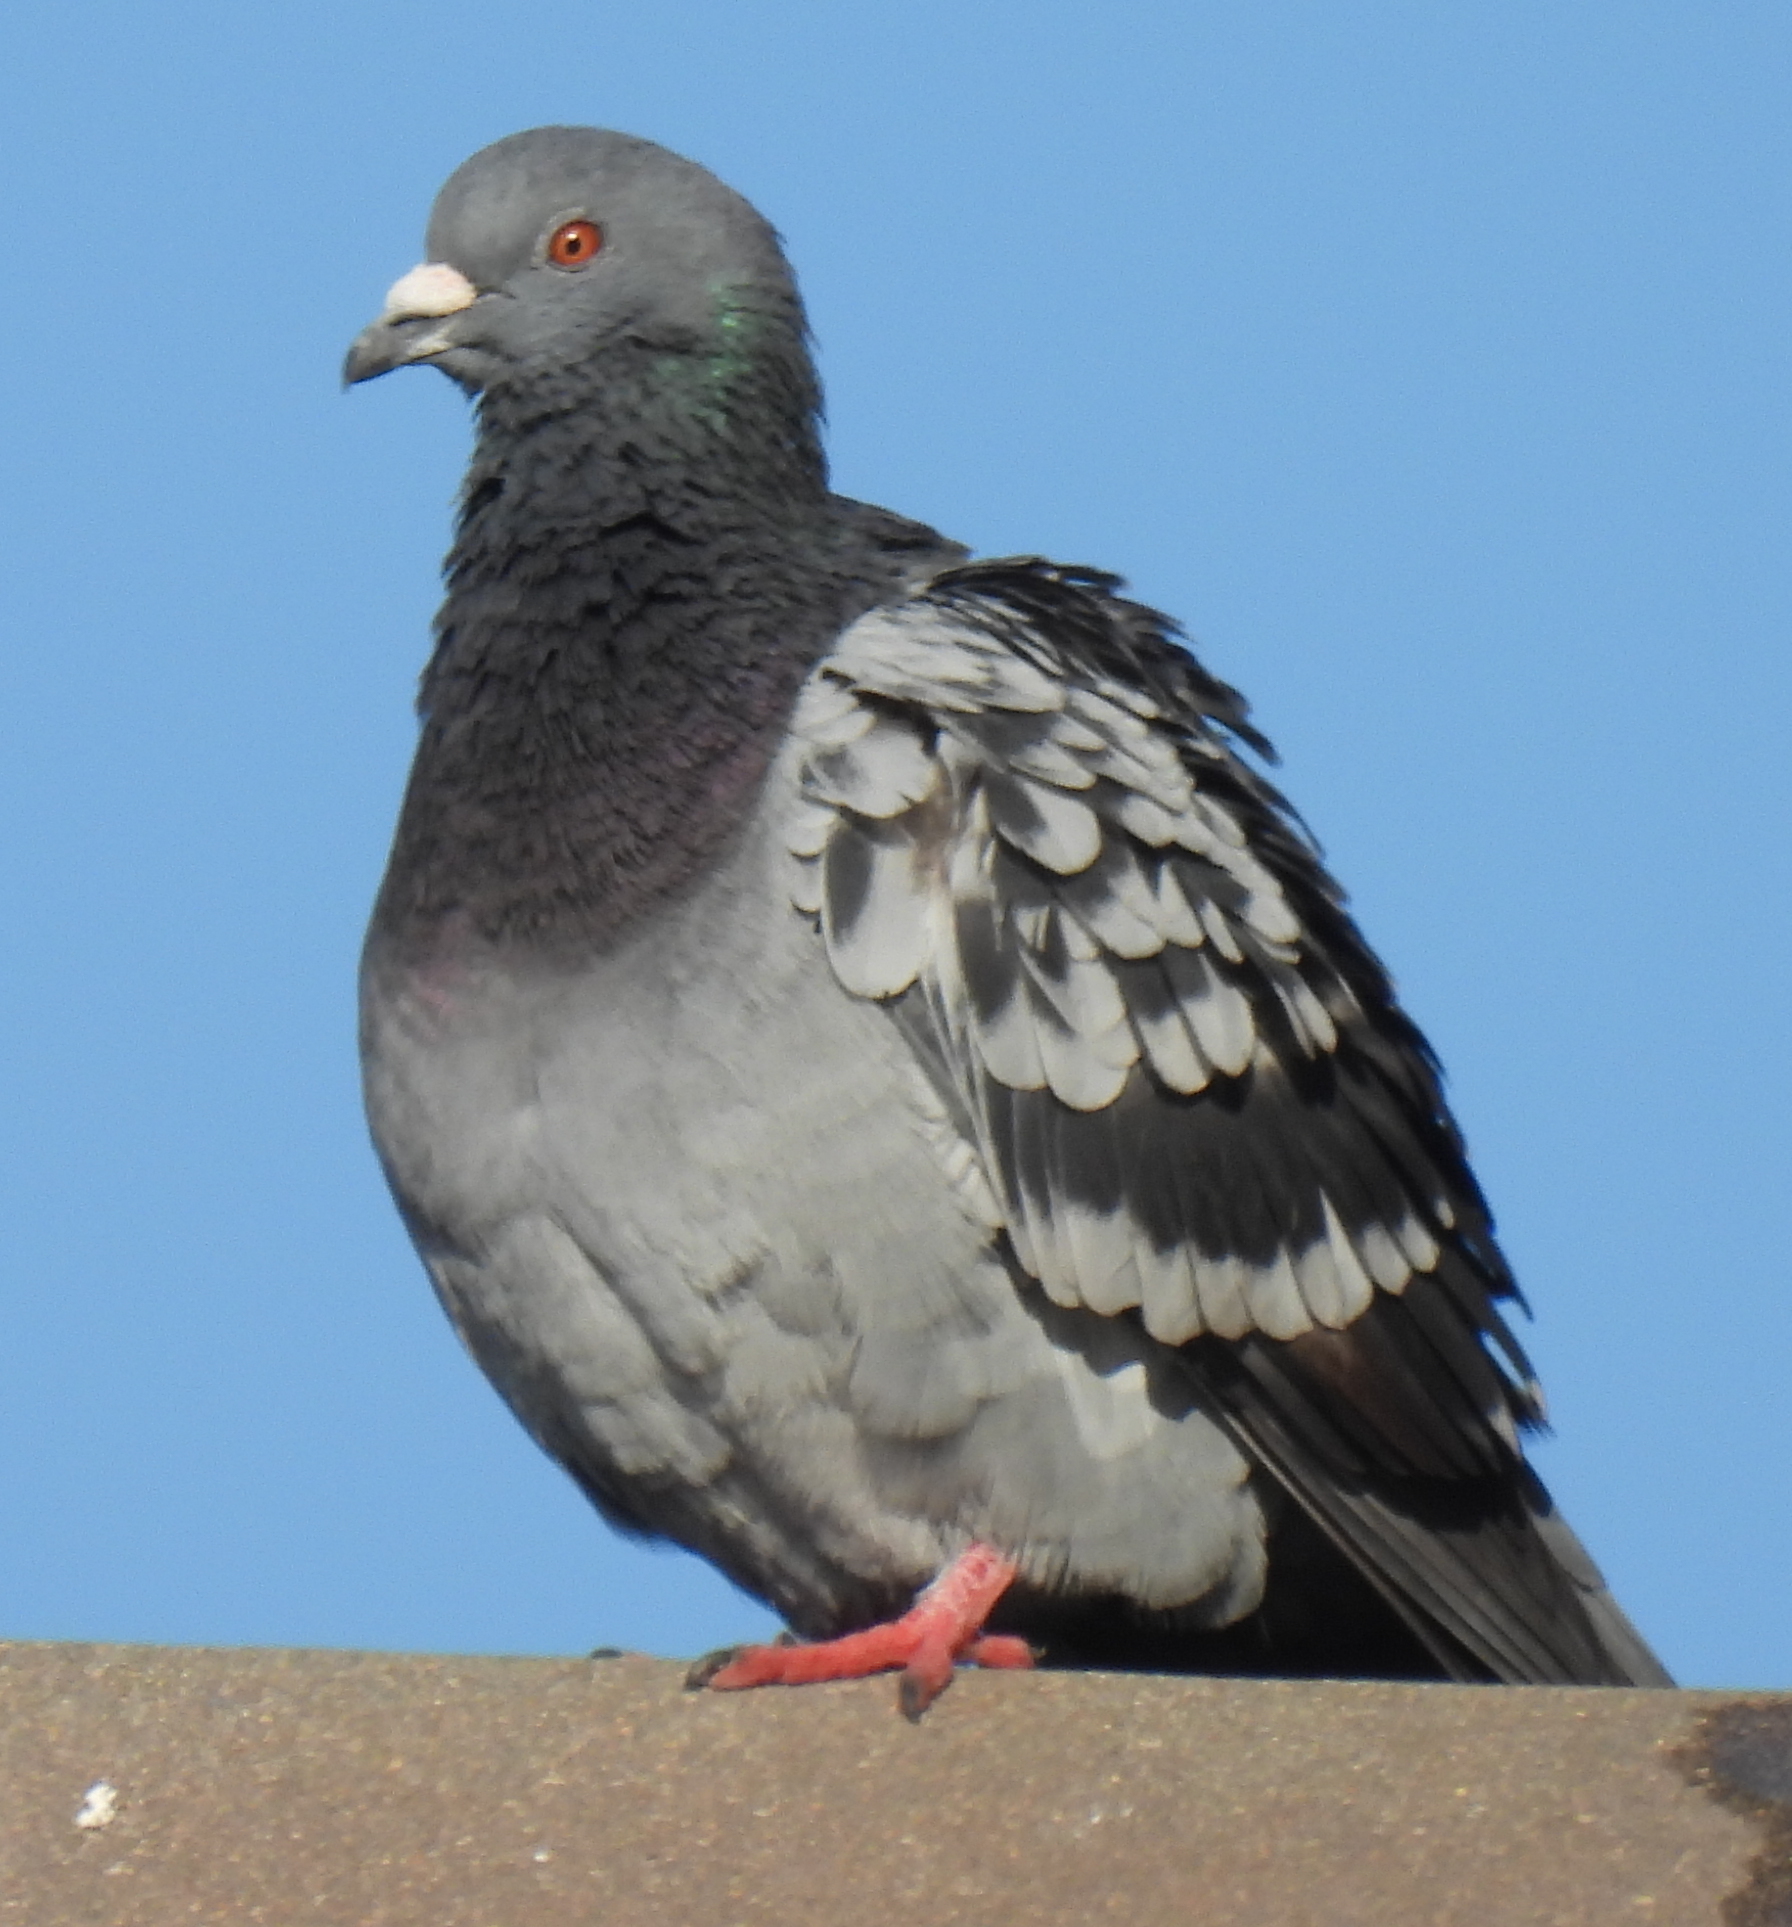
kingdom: Animalia
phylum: Chordata
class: Aves
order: Columbiformes
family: Columbidae
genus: Columba
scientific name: Columba livia
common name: Rock pigeon
